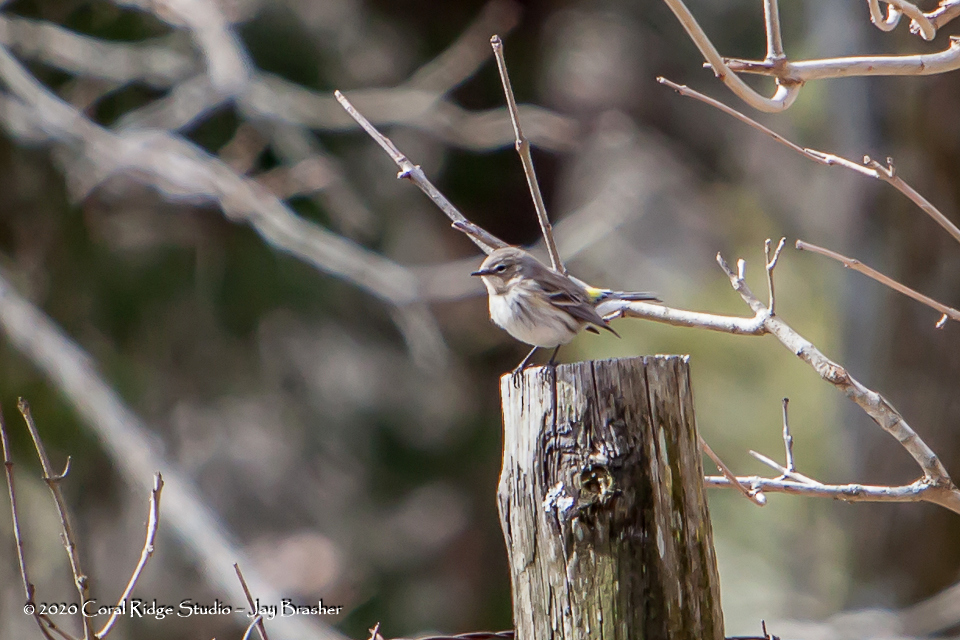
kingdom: Animalia
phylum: Chordata
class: Aves
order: Passeriformes
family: Parulidae
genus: Setophaga
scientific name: Setophaga coronata
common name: Myrtle warbler
